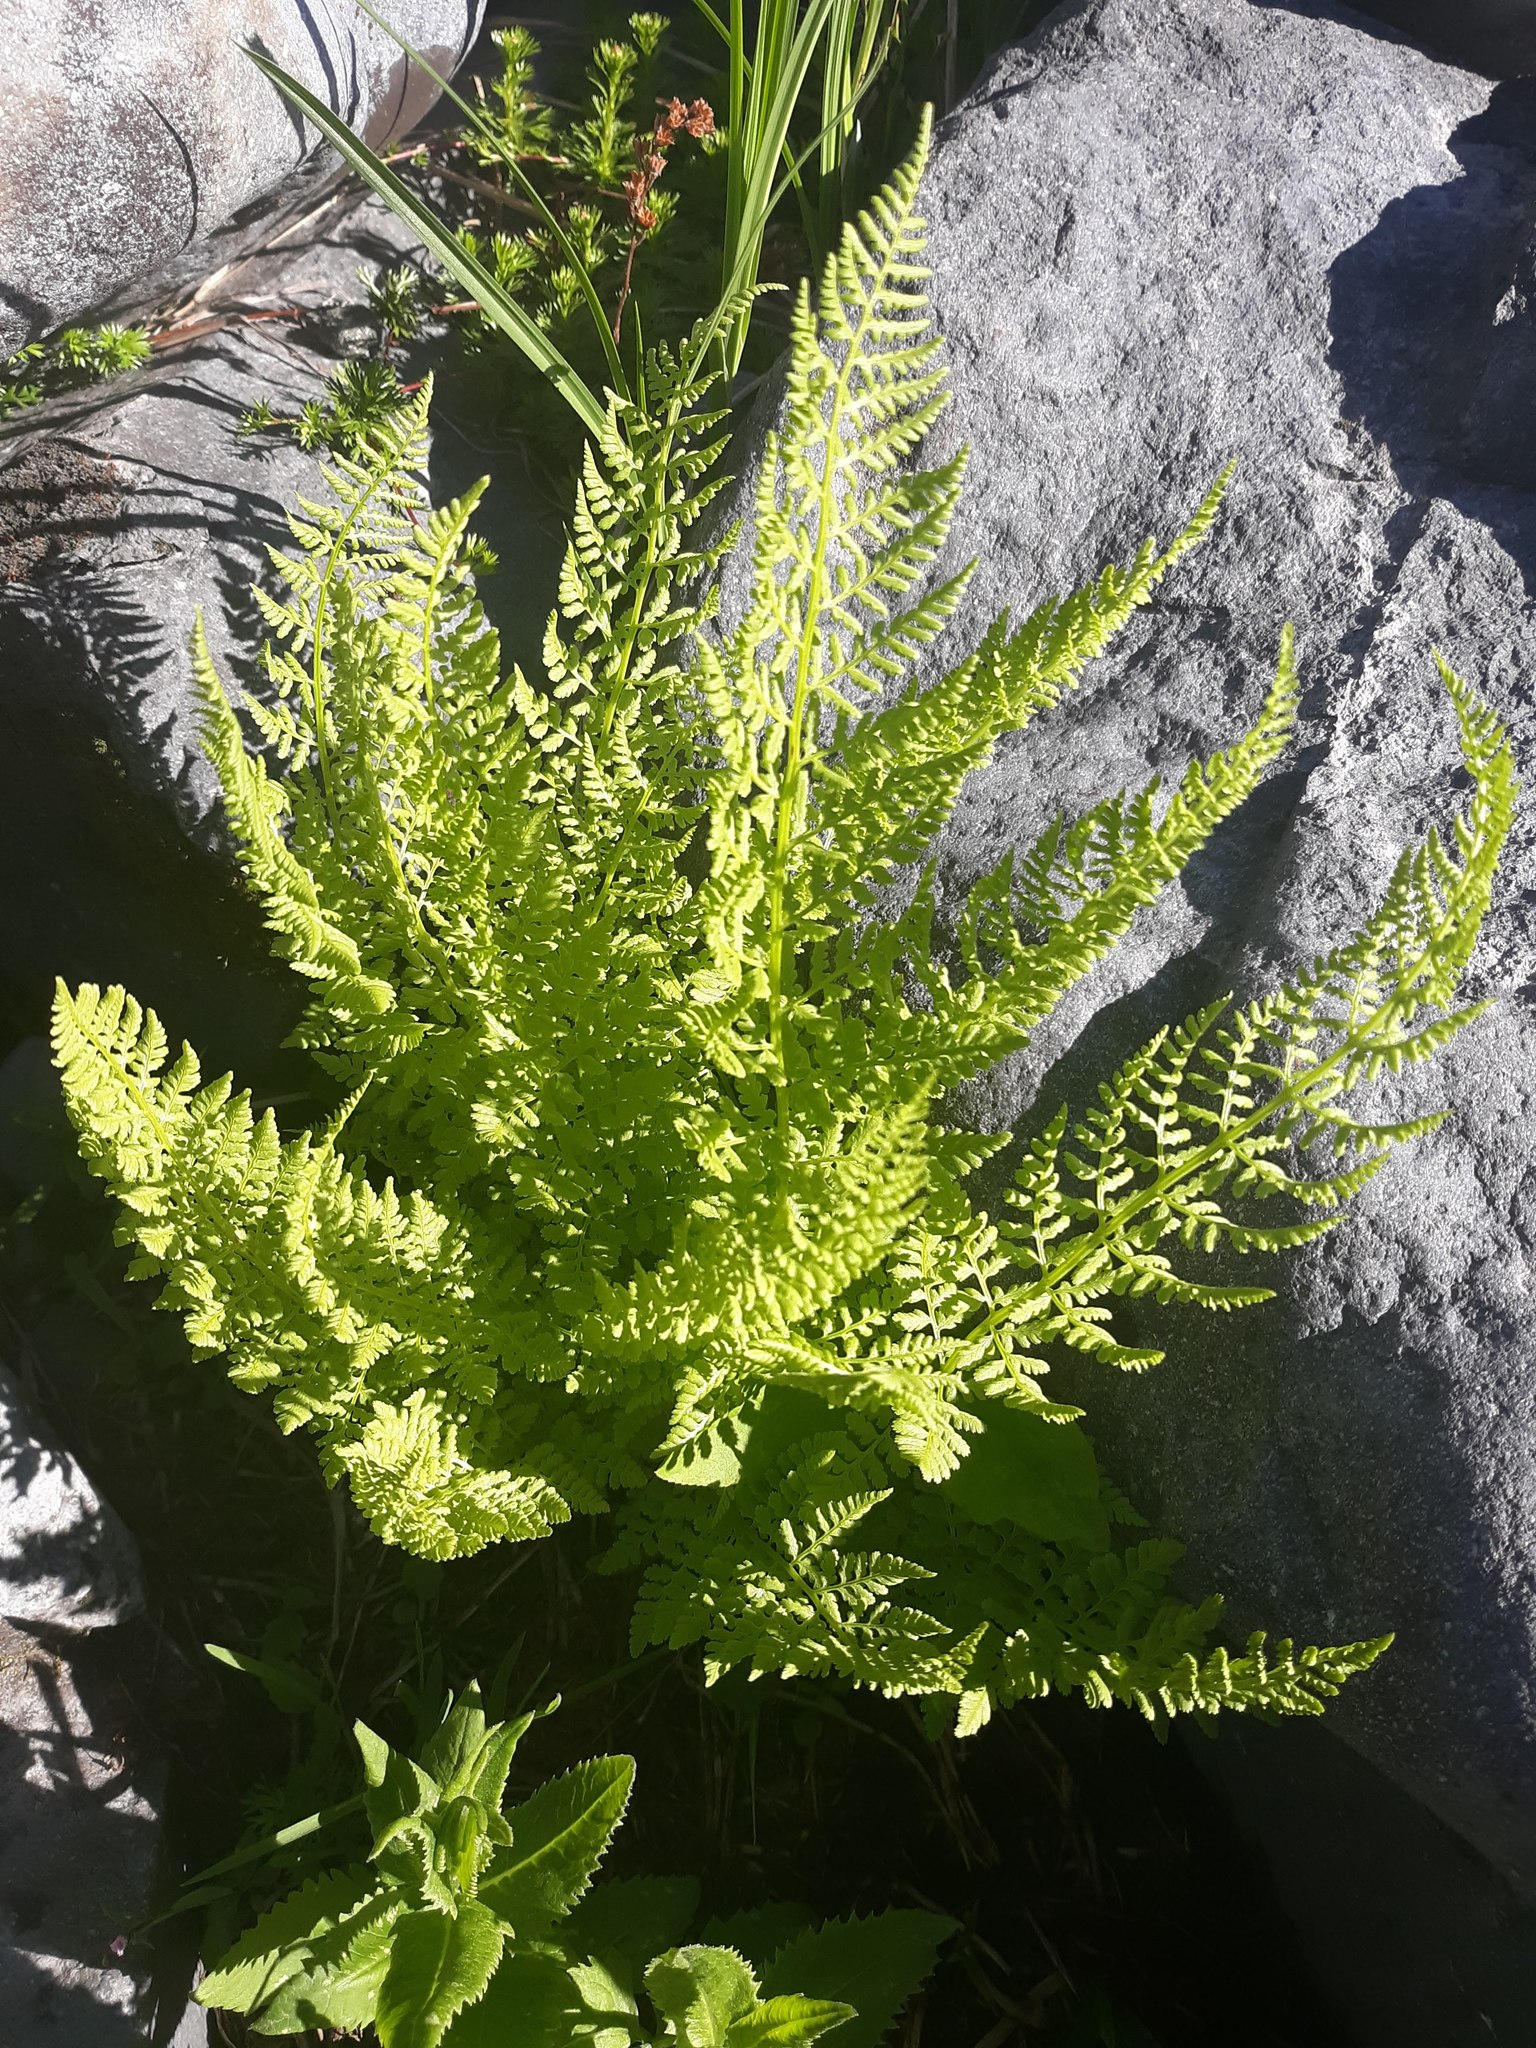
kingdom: Plantae
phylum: Tracheophyta
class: Polypodiopsida
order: Polypodiales
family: Athyriaceae
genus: Athyrium
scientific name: Athyrium americanum
